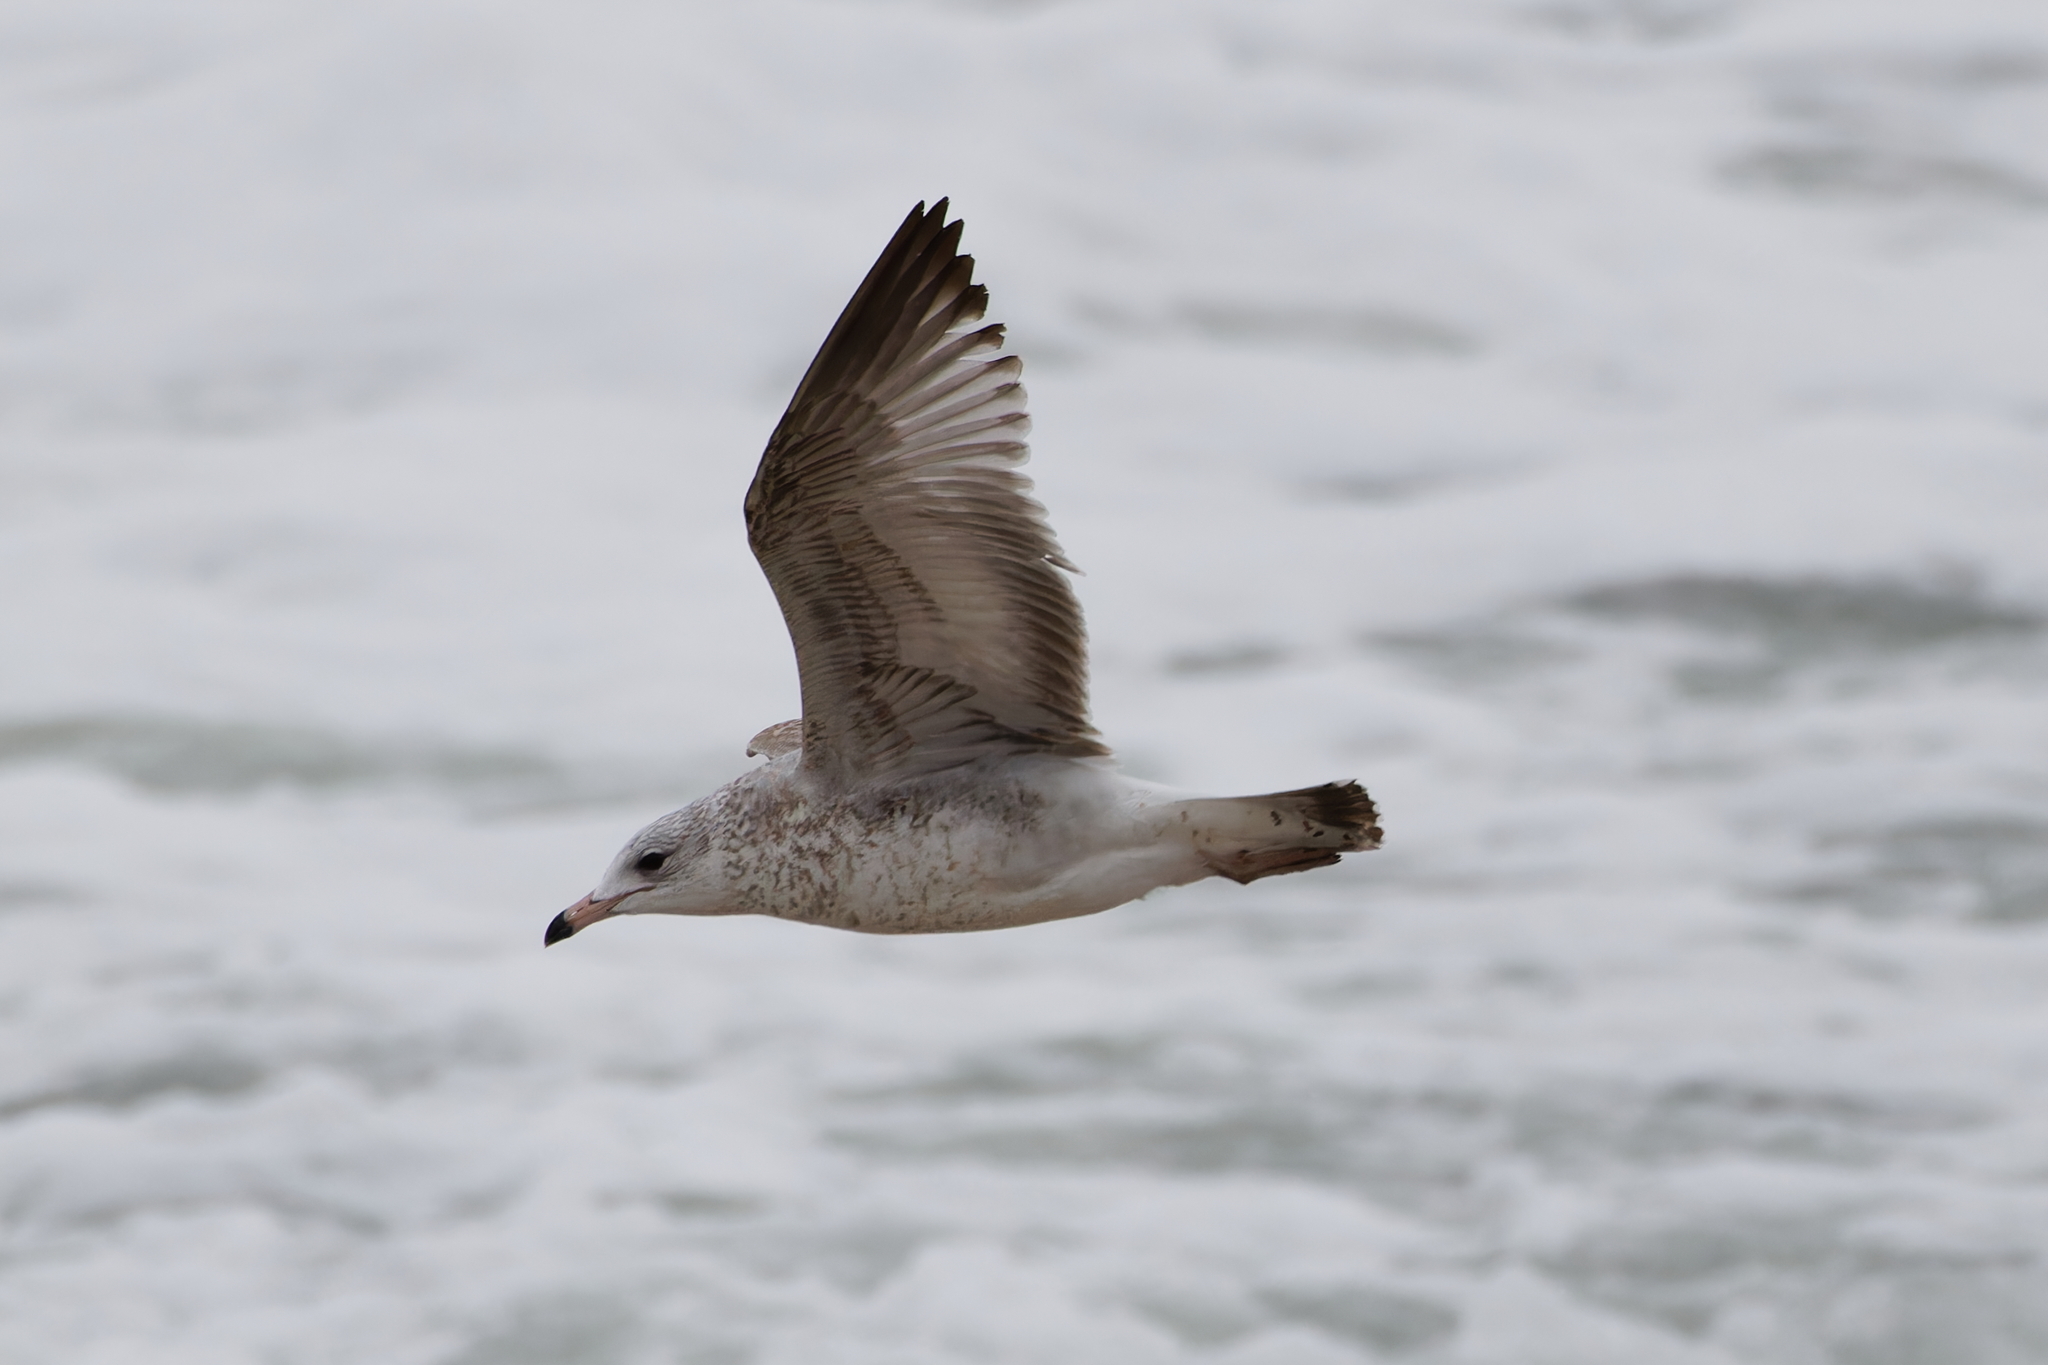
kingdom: Animalia
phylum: Chordata
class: Aves
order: Charadriiformes
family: Laridae
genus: Larus
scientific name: Larus delawarensis
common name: Ring-billed gull
